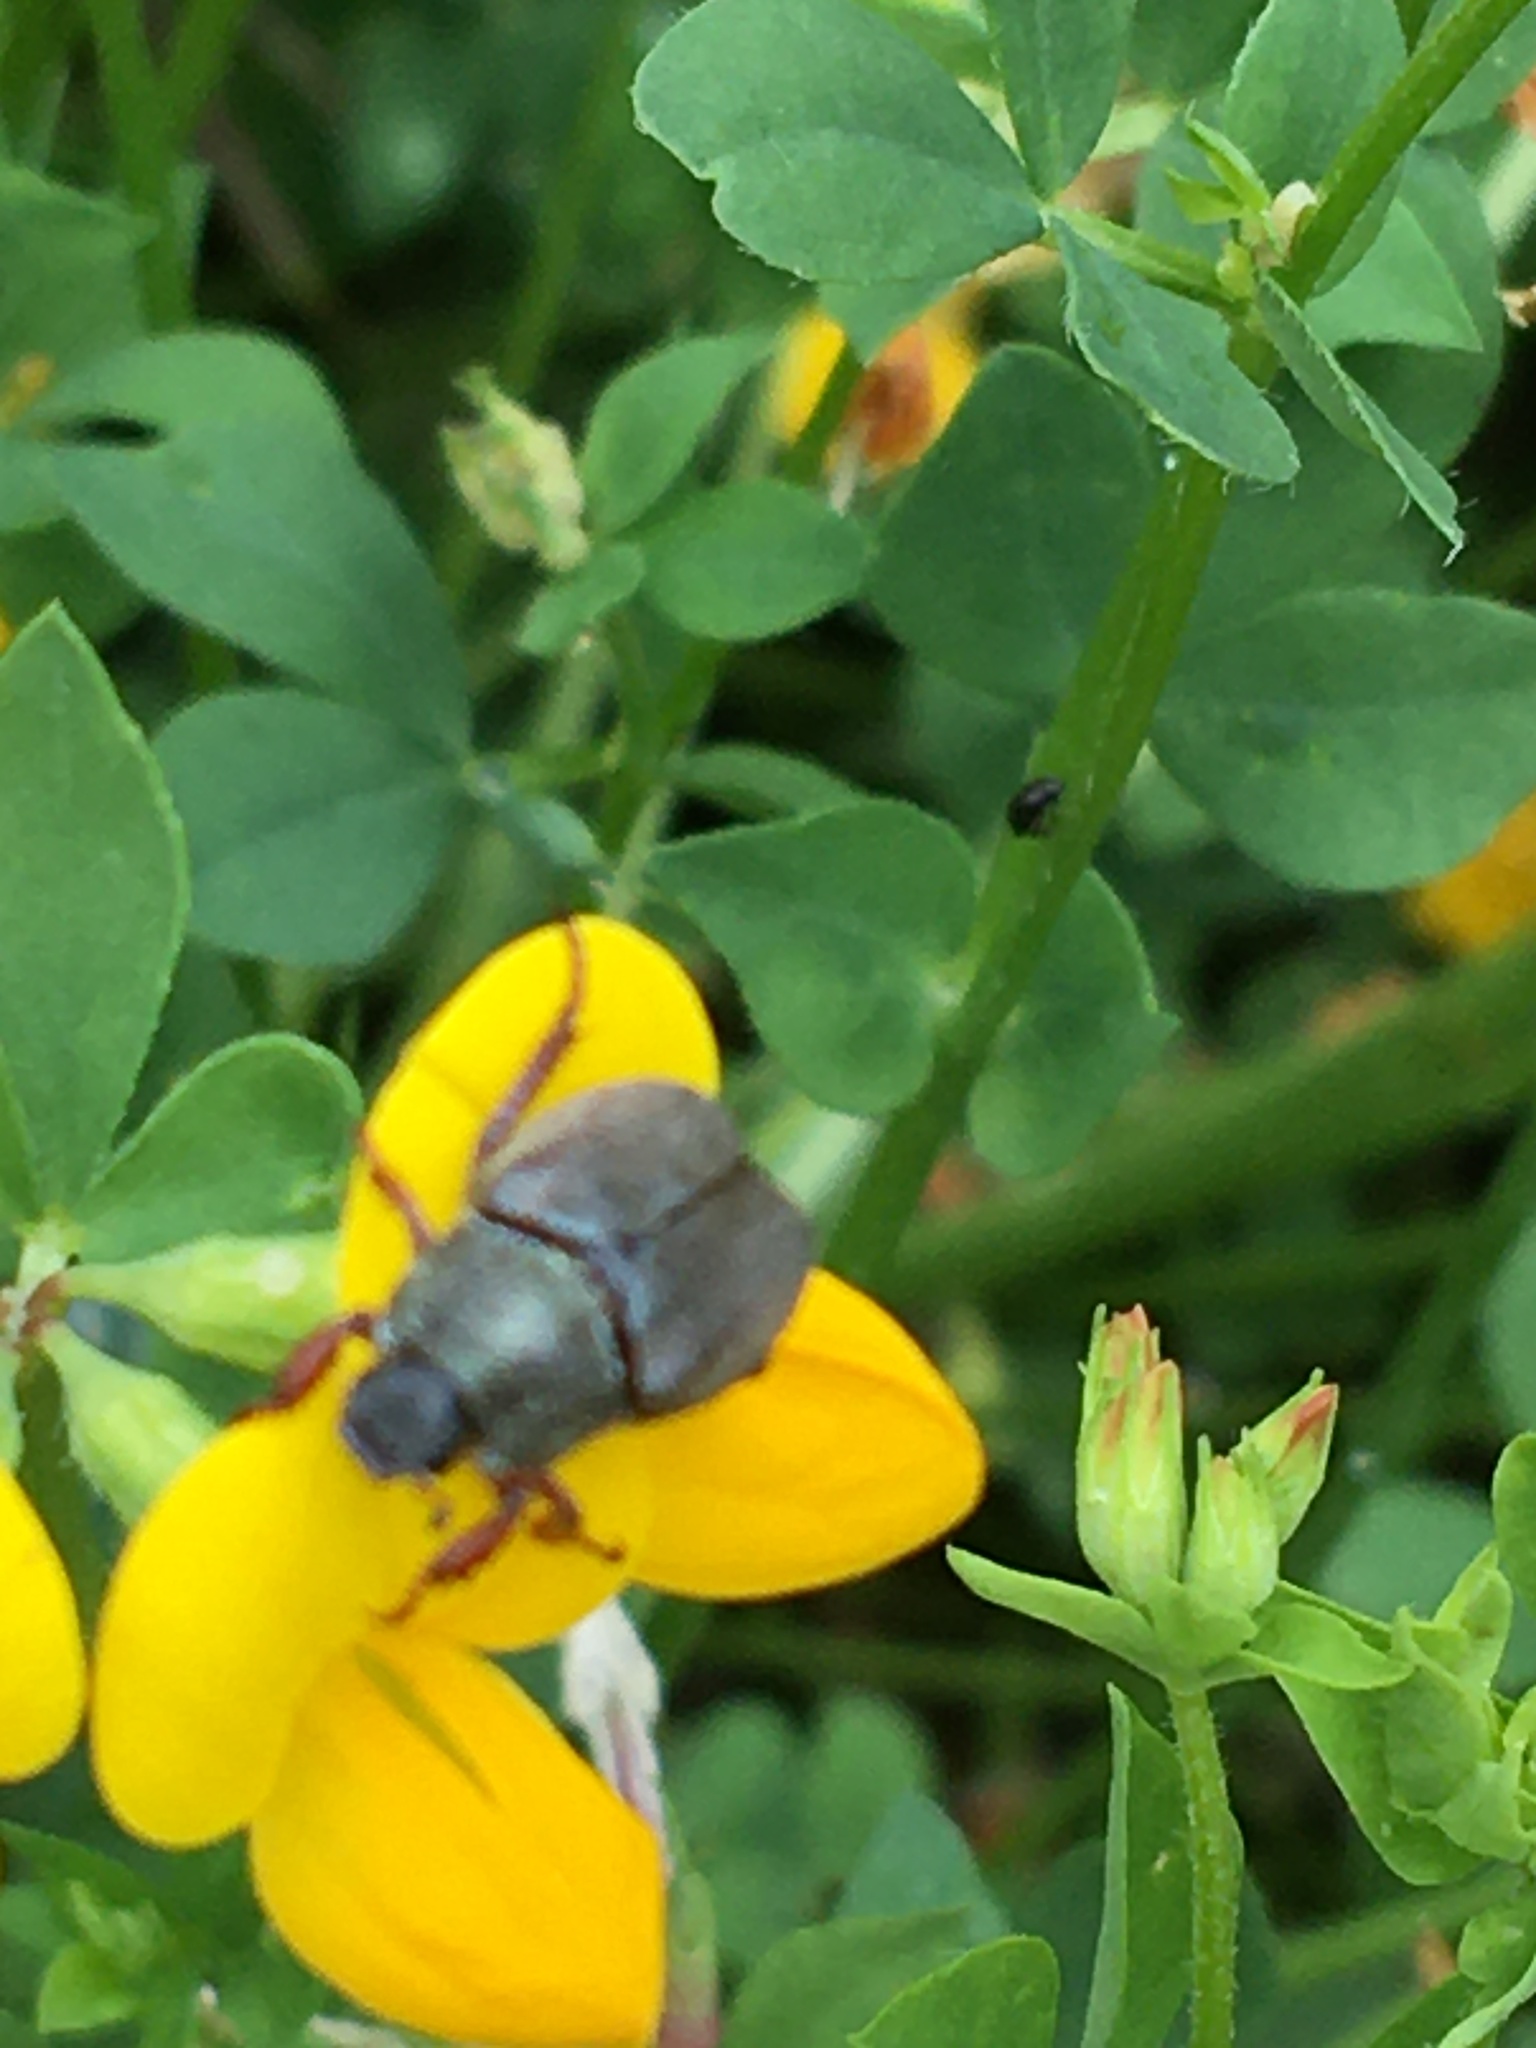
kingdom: Animalia
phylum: Arthropoda
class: Insecta
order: Coleoptera
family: Scarabaeidae
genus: Hoplia
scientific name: Hoplia philanthus
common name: Welsh chafer
